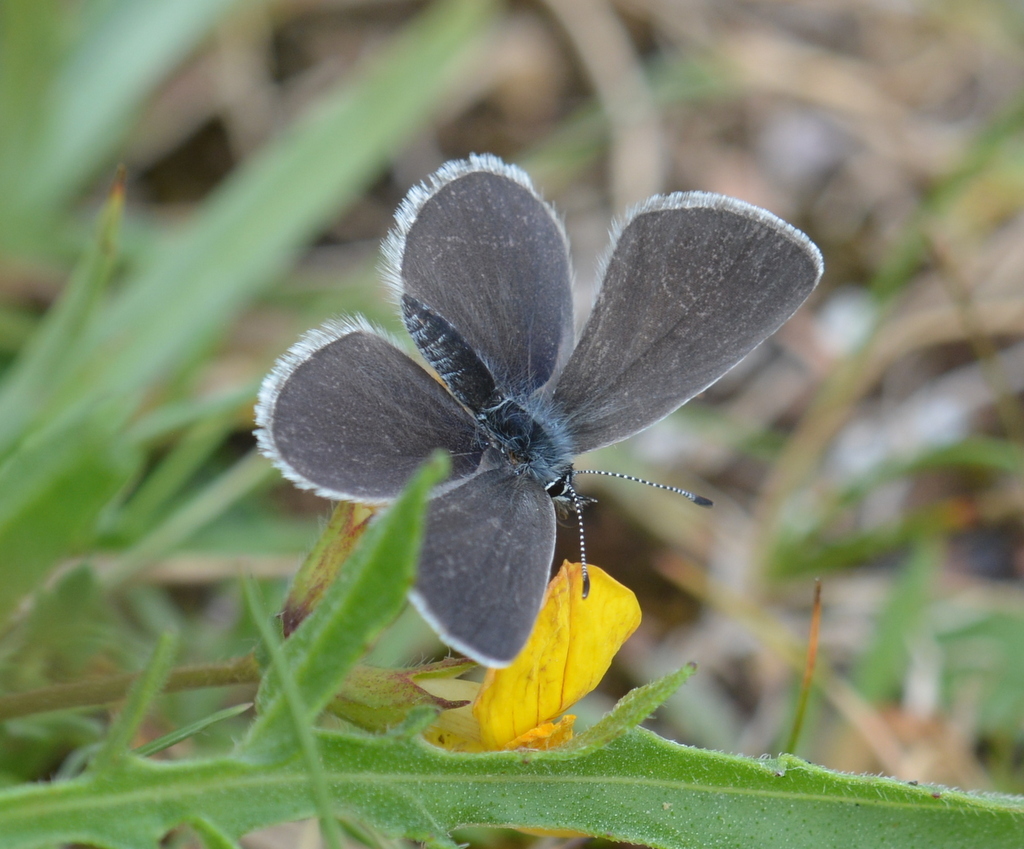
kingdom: Animalia
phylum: Arthropoda
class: Insecta
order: Lepidoptera
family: Lycaenidae
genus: Cupido
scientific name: Cupido minimus
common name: Small blue
